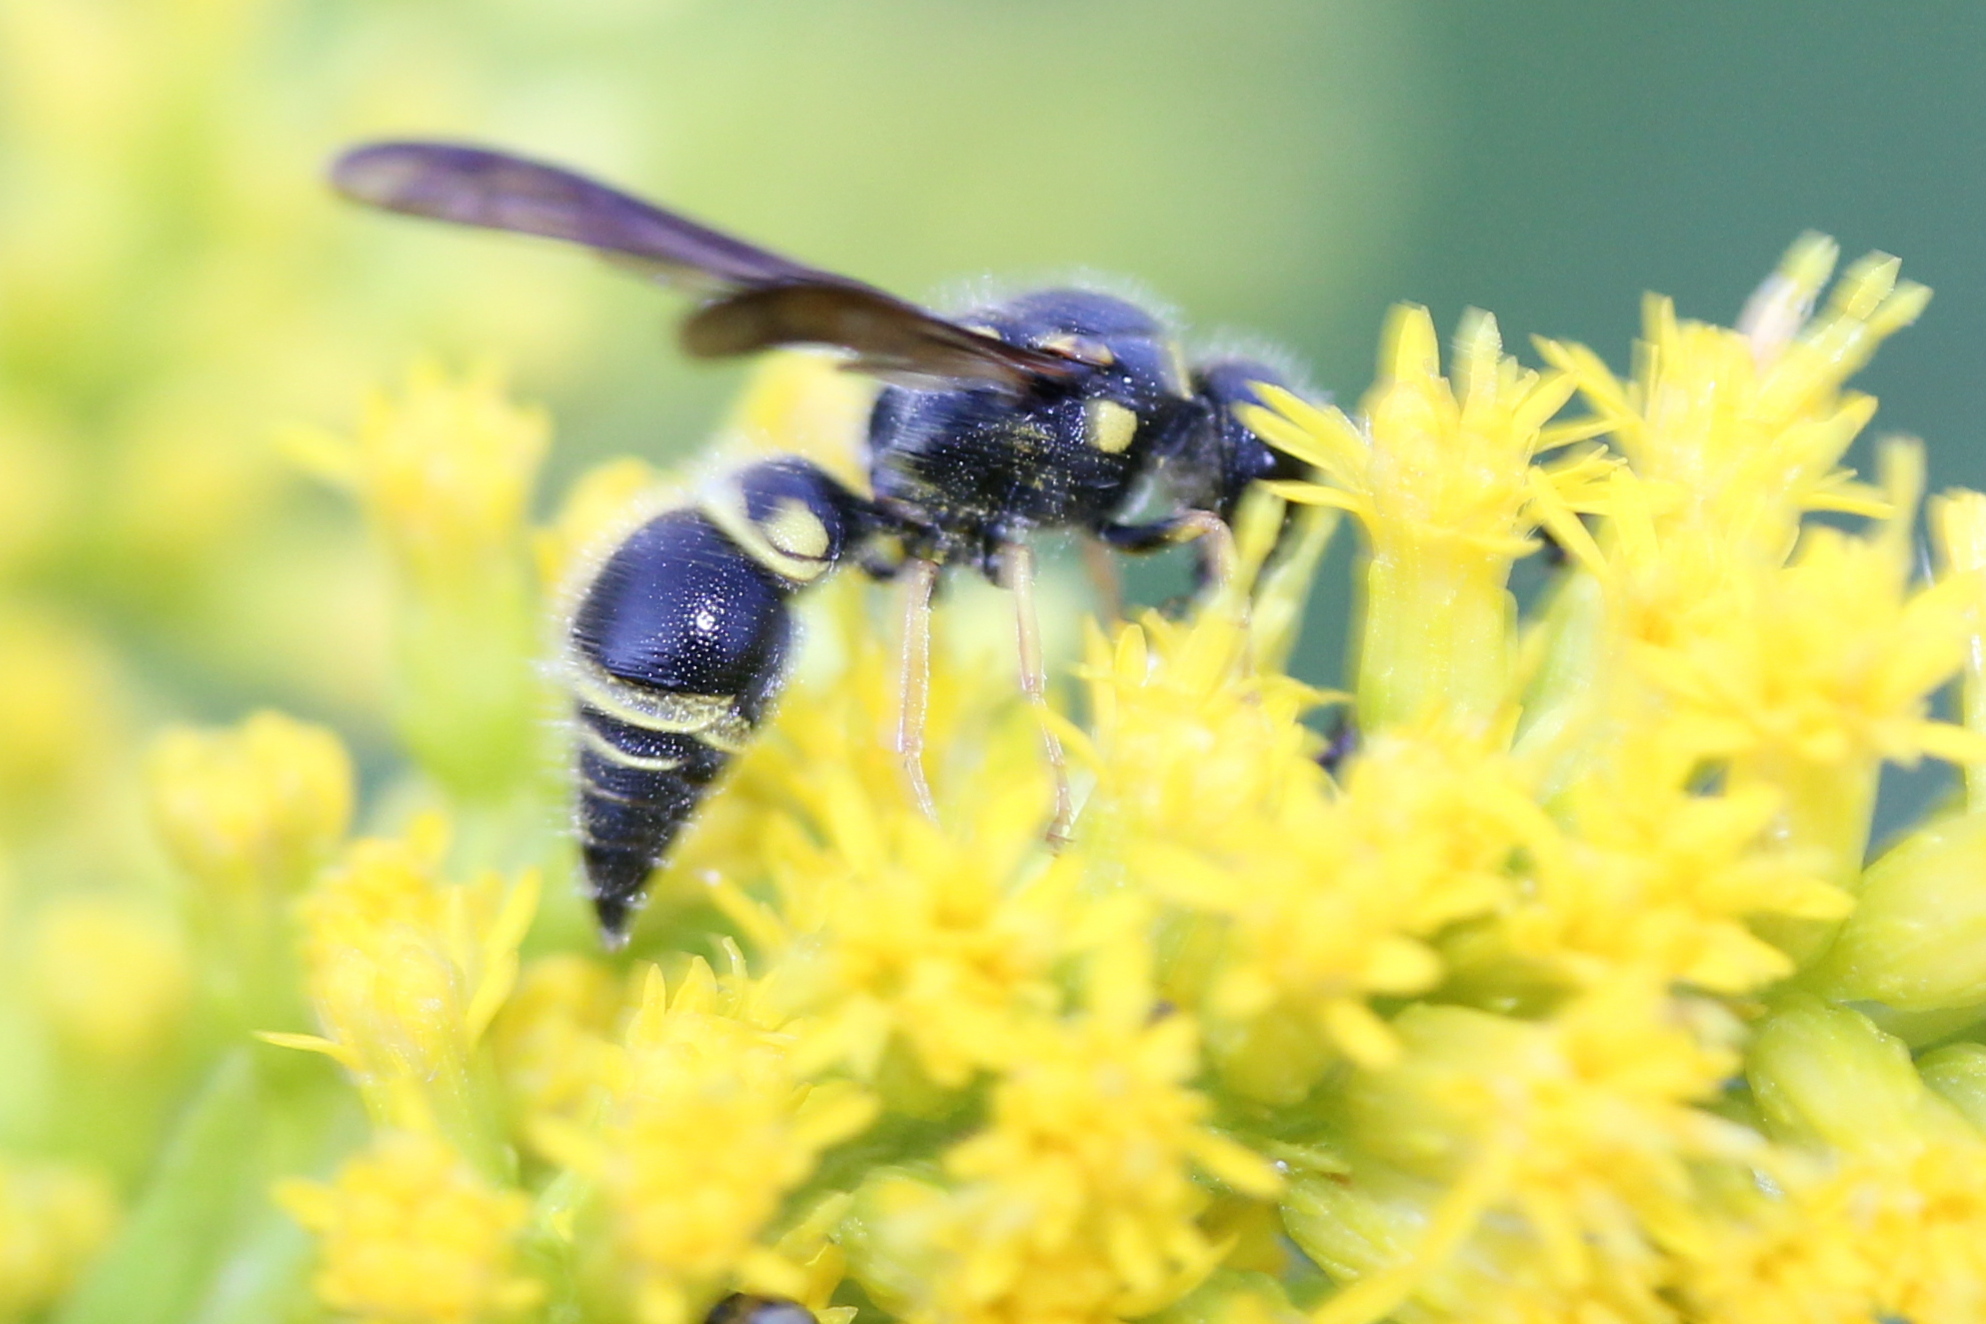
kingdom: Animalia
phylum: Arthropoda
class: Insecta
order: Hymenoptera
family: Vespidae
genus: Ancistrocerus
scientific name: Ancistrocerus campestris
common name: Smiling mason wasp
